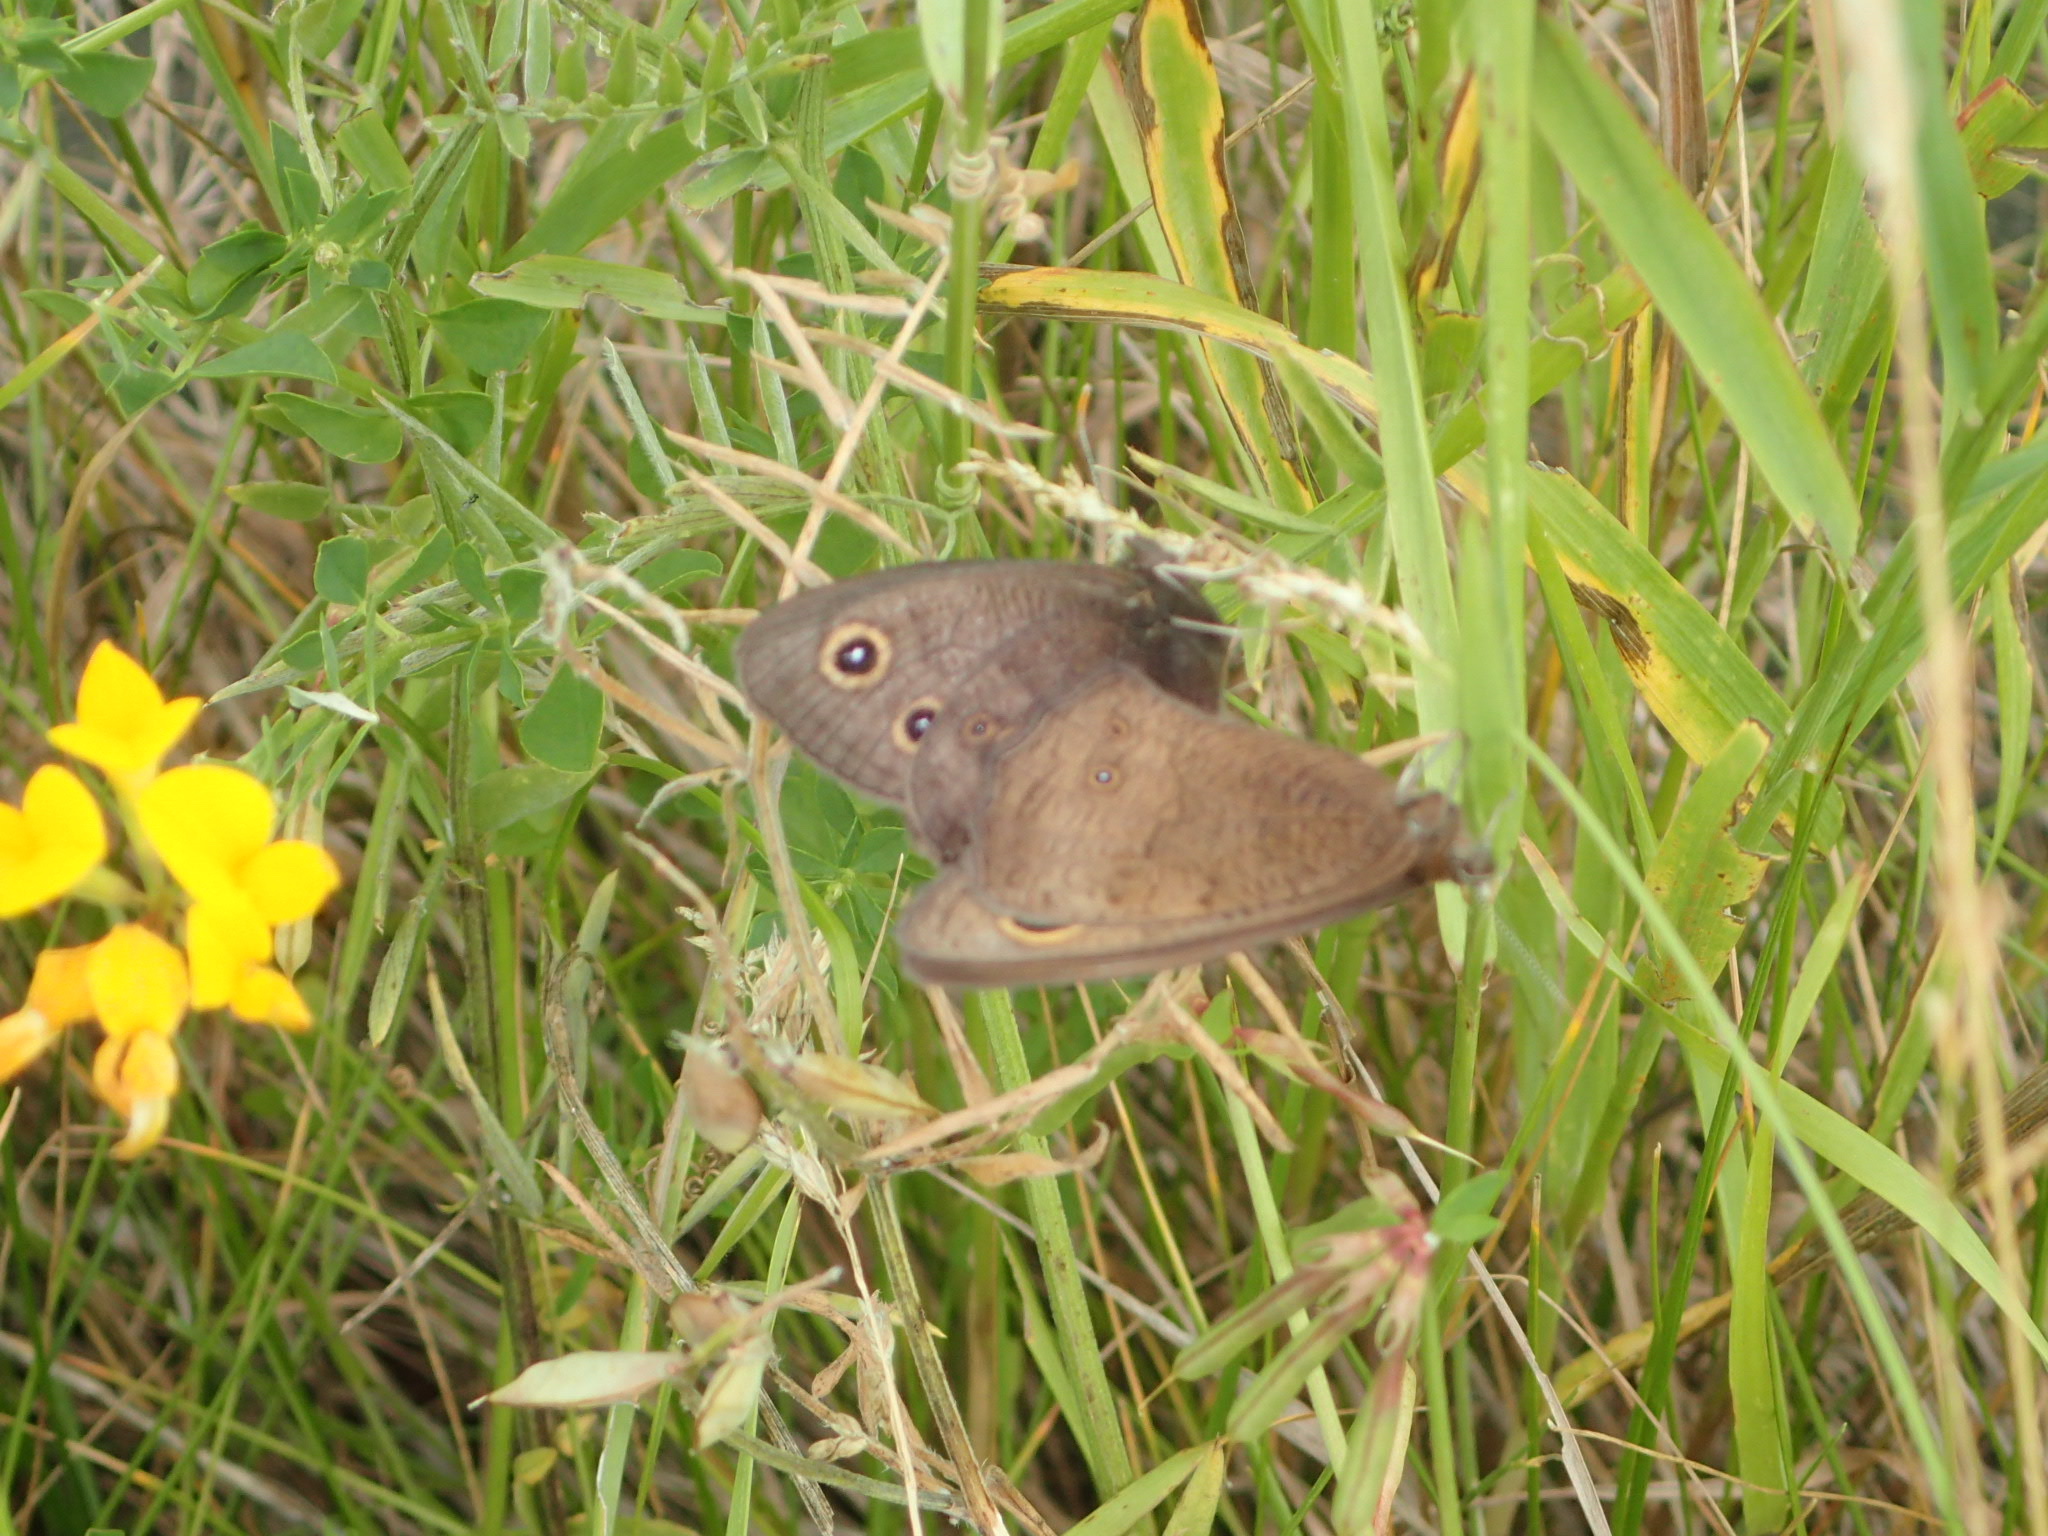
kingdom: Animalia
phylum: Arthropoda
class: Insecta
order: Lepidoptera
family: Nymphalidae
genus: Cercyonis
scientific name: Cercyonis pegala
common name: Common wood-nymph
